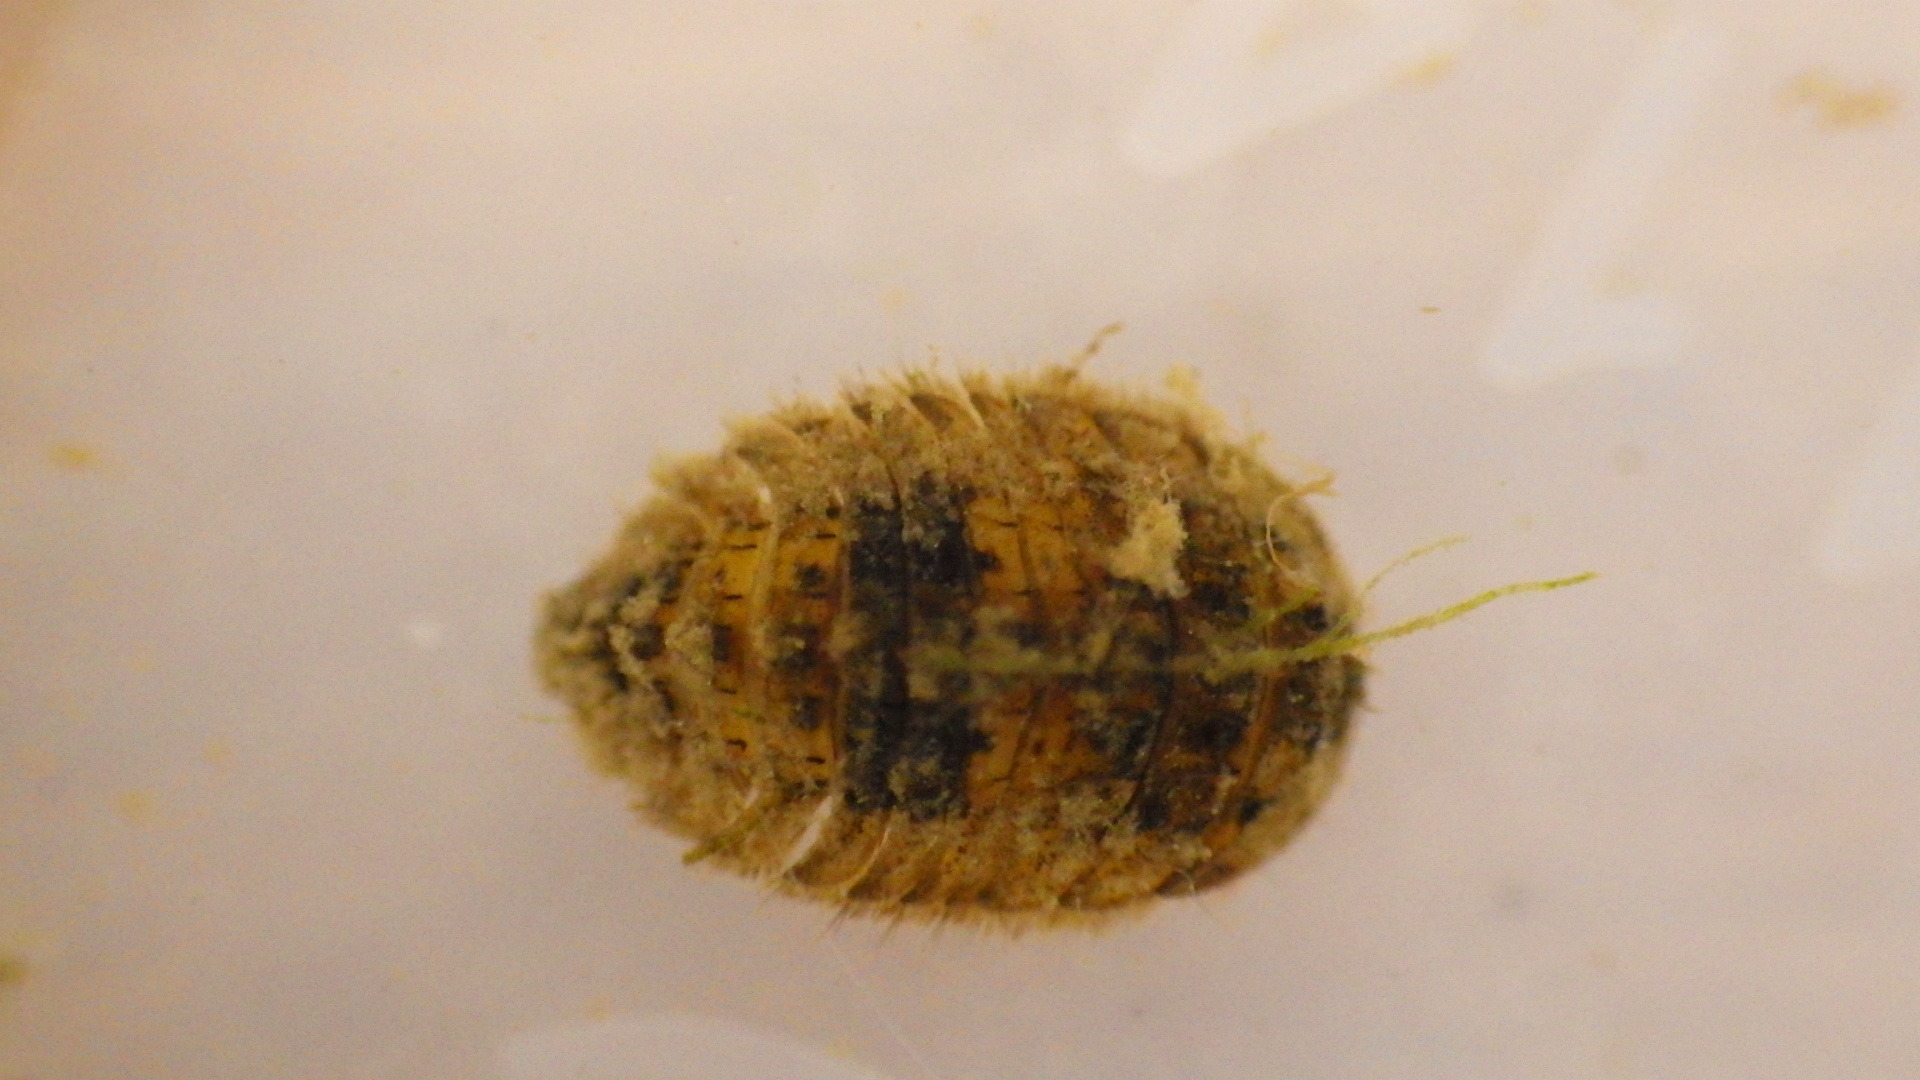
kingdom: Animalia
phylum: Arthropoda
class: Insecta
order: Coleoptera
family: Psephenidae
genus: Ectopria
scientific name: Ectopria nervosa
